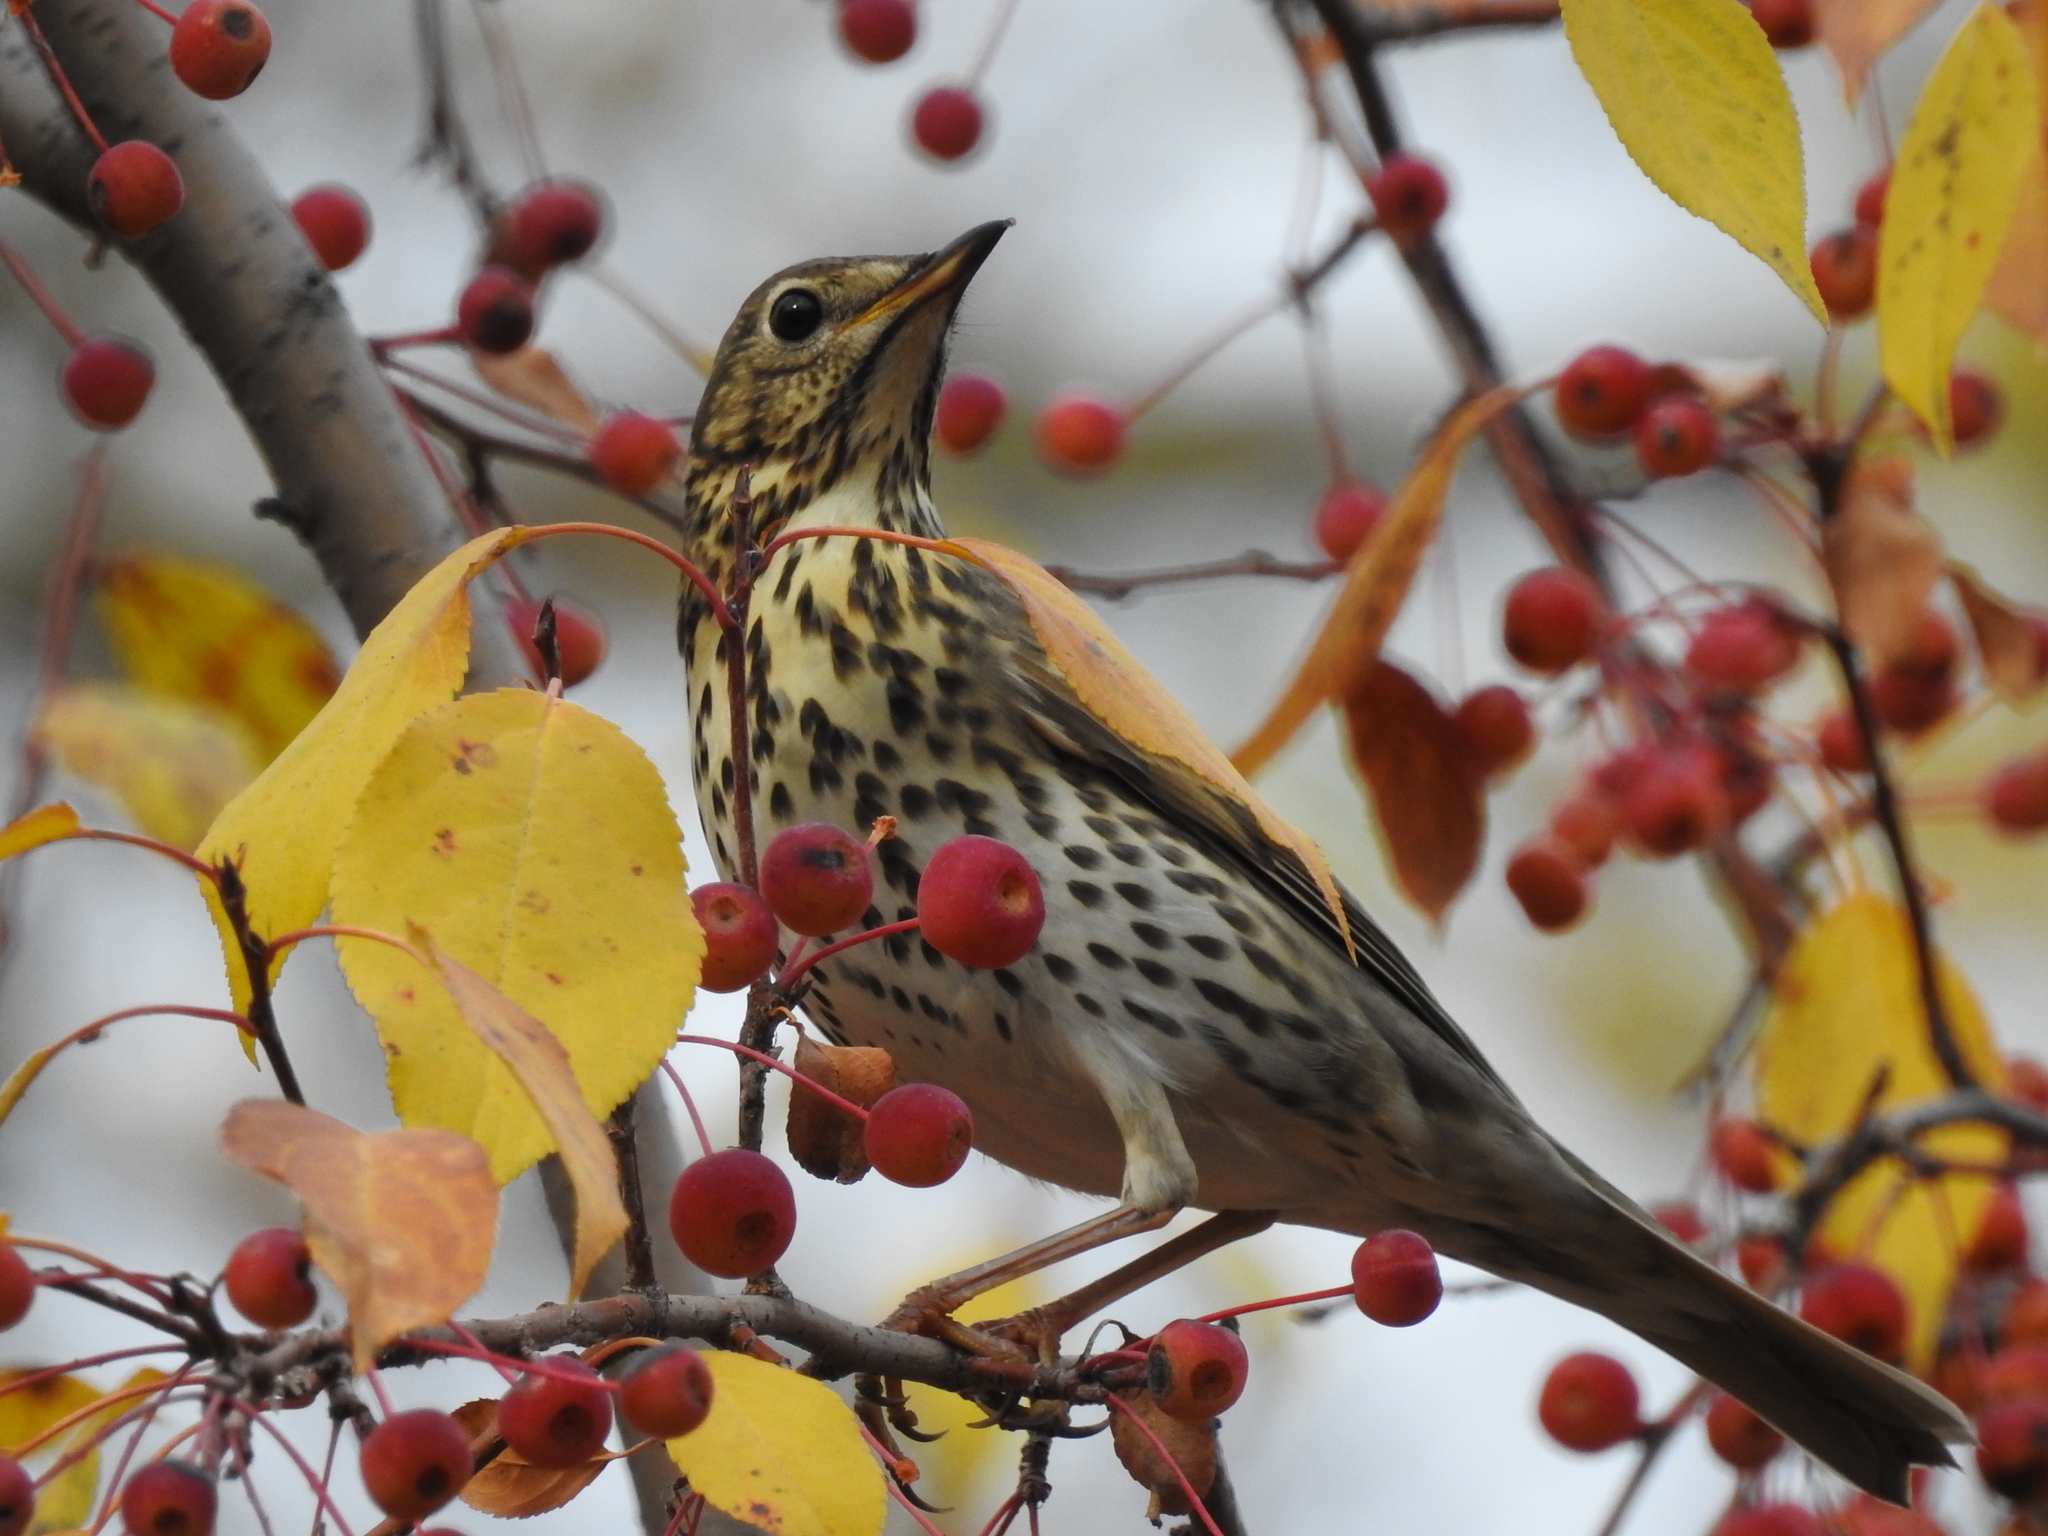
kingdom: Animalia
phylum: Chordata
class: Aves
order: Passeriformes
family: Turdidae
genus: Turdus
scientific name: Turdus philomelos
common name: Song thrush
